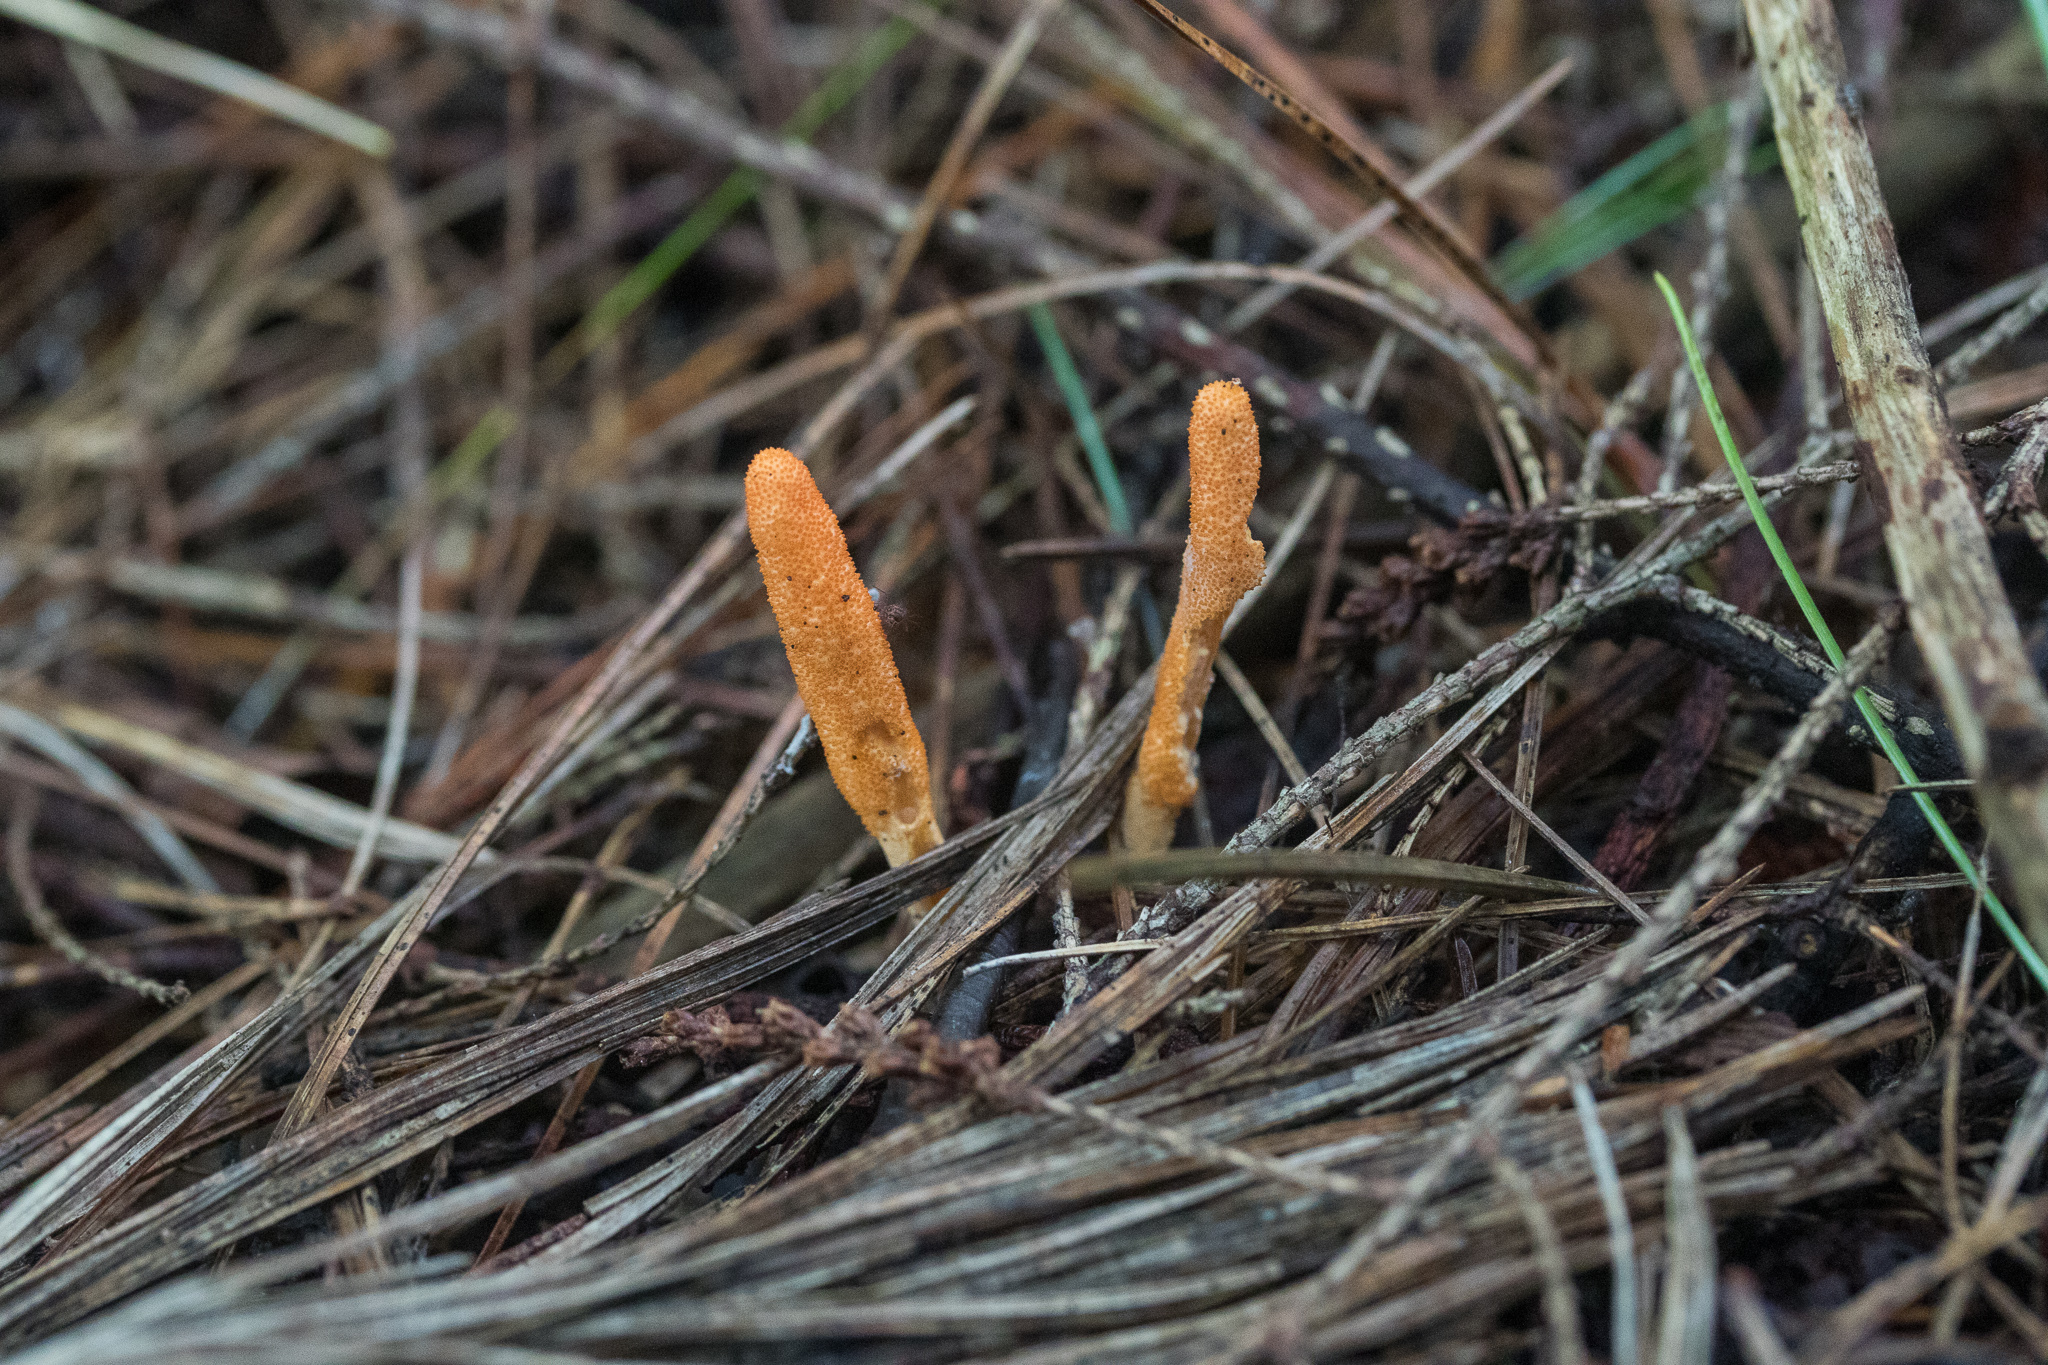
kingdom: Fungi
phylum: Ascomycota
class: Sordariomycetes
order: Hypocreales
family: Cordycipitaceae
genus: Cordyceps
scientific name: Cordyceps militaris
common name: Scarlet caterpillar fungus
